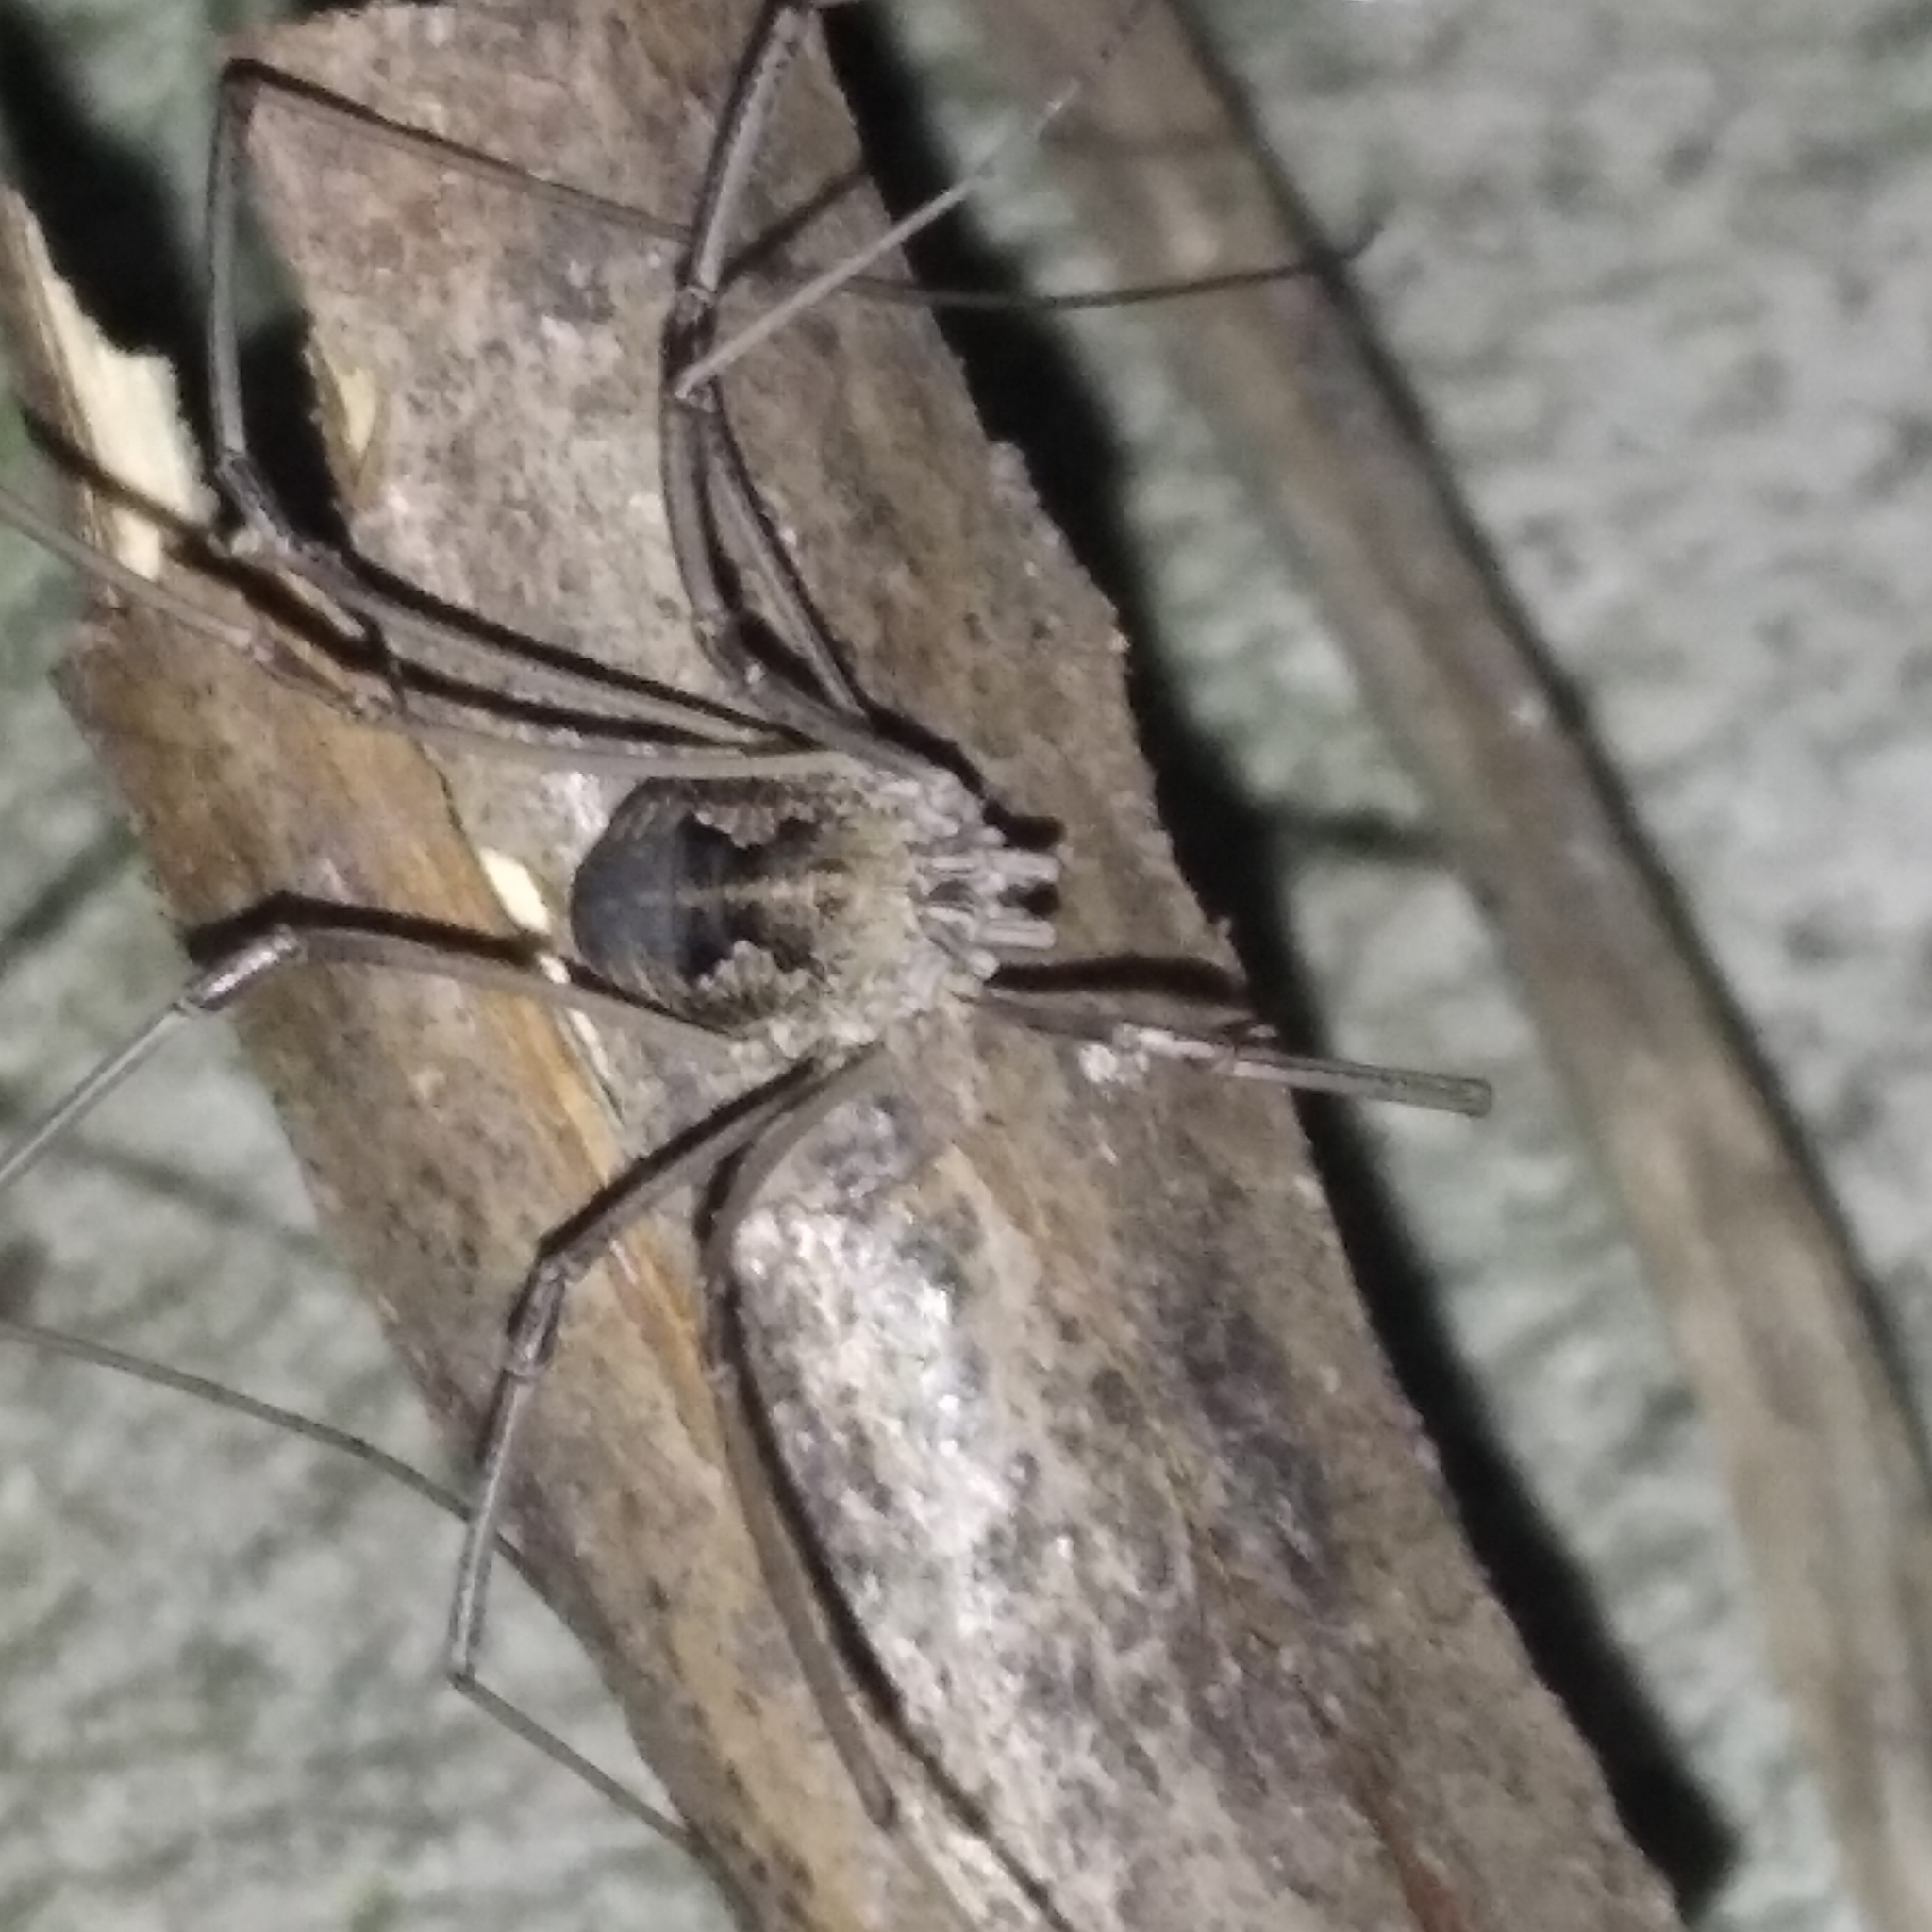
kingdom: Animalia
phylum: Arthropoda
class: Arachnida
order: Opiliones
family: Phalangiidae
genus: Phalangium
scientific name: Phalangium opilio
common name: Daddy longleg
